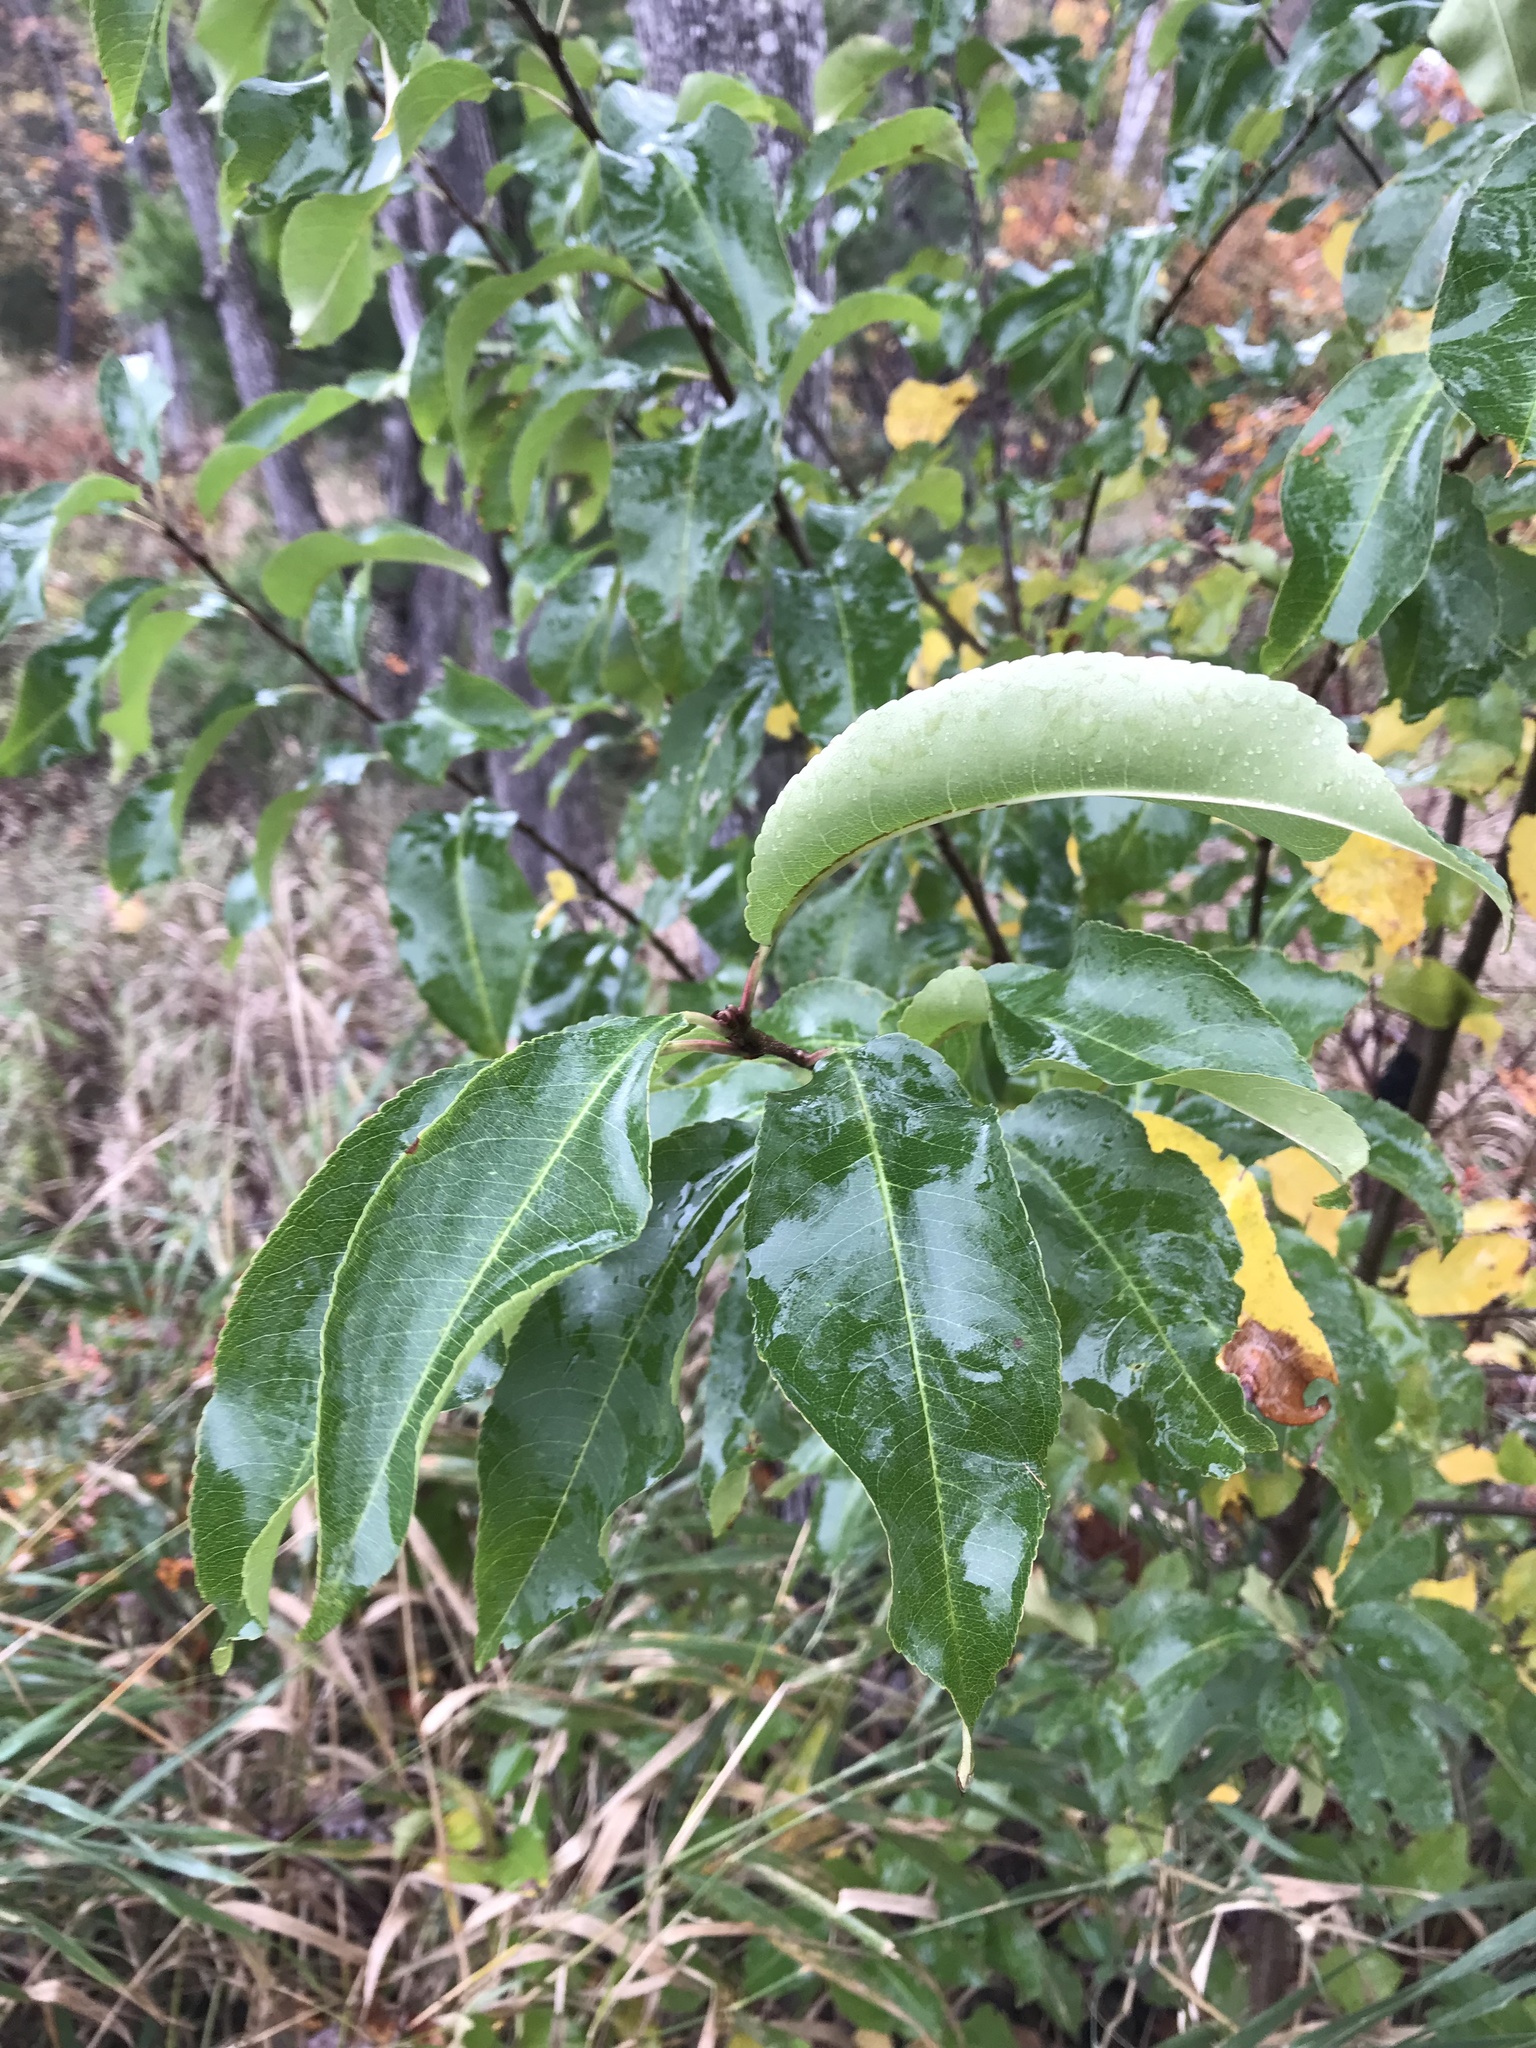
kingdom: Plantae
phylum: Tracheophyta
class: Magnoliopsida
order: Rosales
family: Rosaceae
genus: Prunus
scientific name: Prunus serotina
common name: Black cherry
